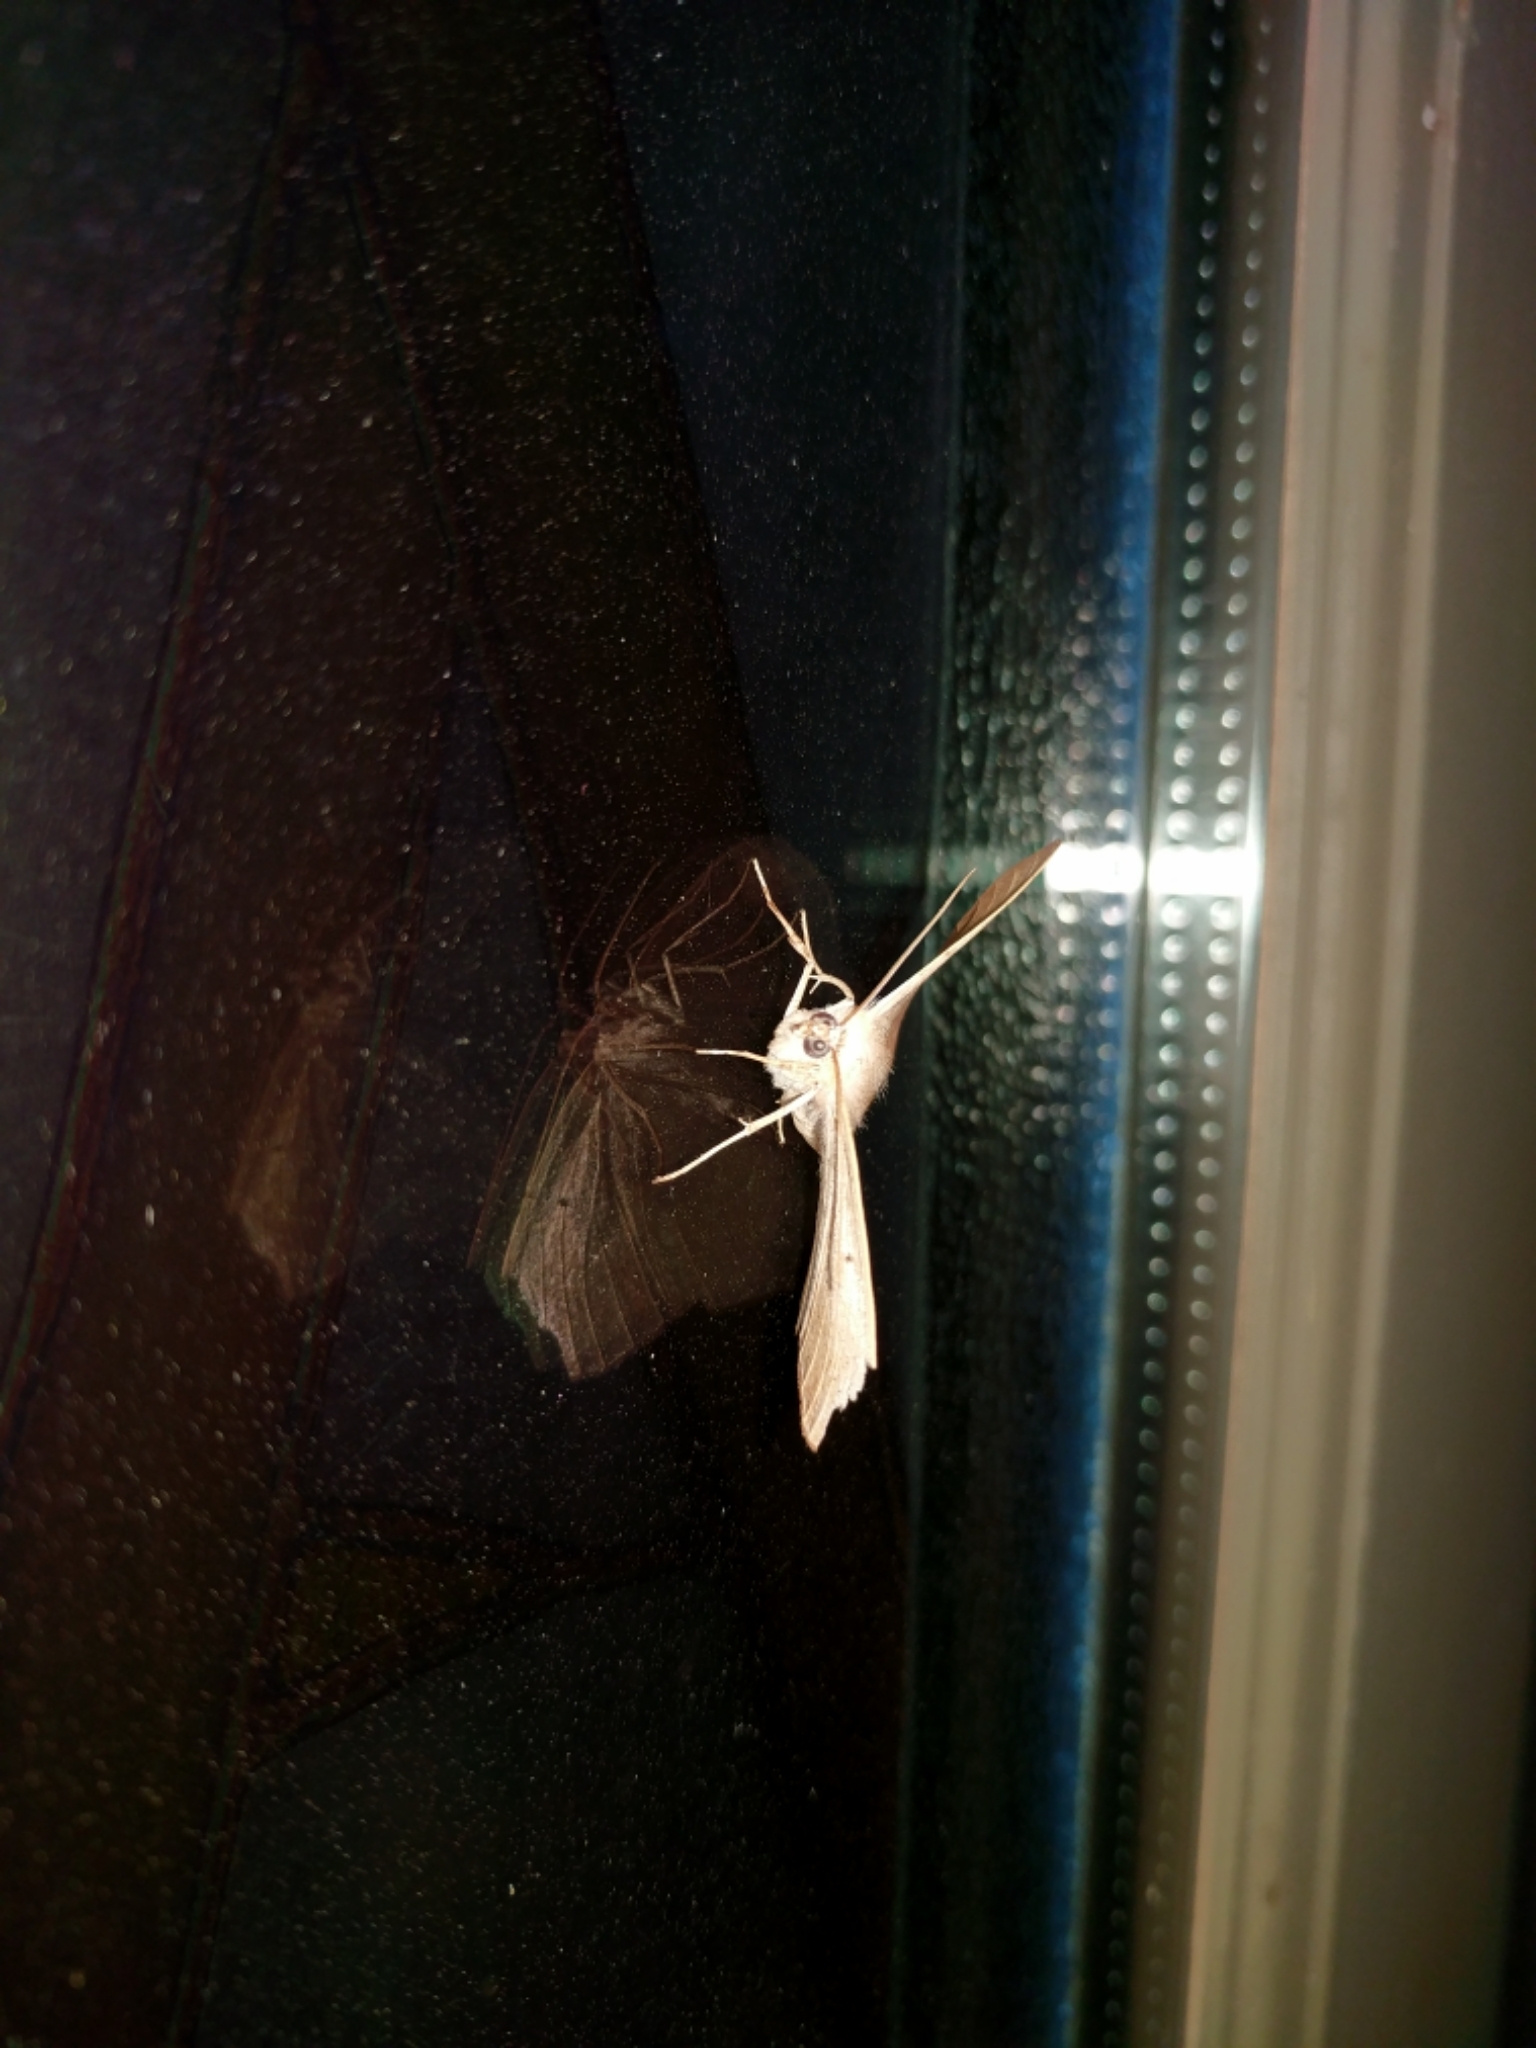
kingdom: Animalia
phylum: Arthropoda
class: Insecta
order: Lepidoptera
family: Geometridae
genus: Prochoerodes
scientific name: Prochoerodes lineola
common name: Large maple spanworm
